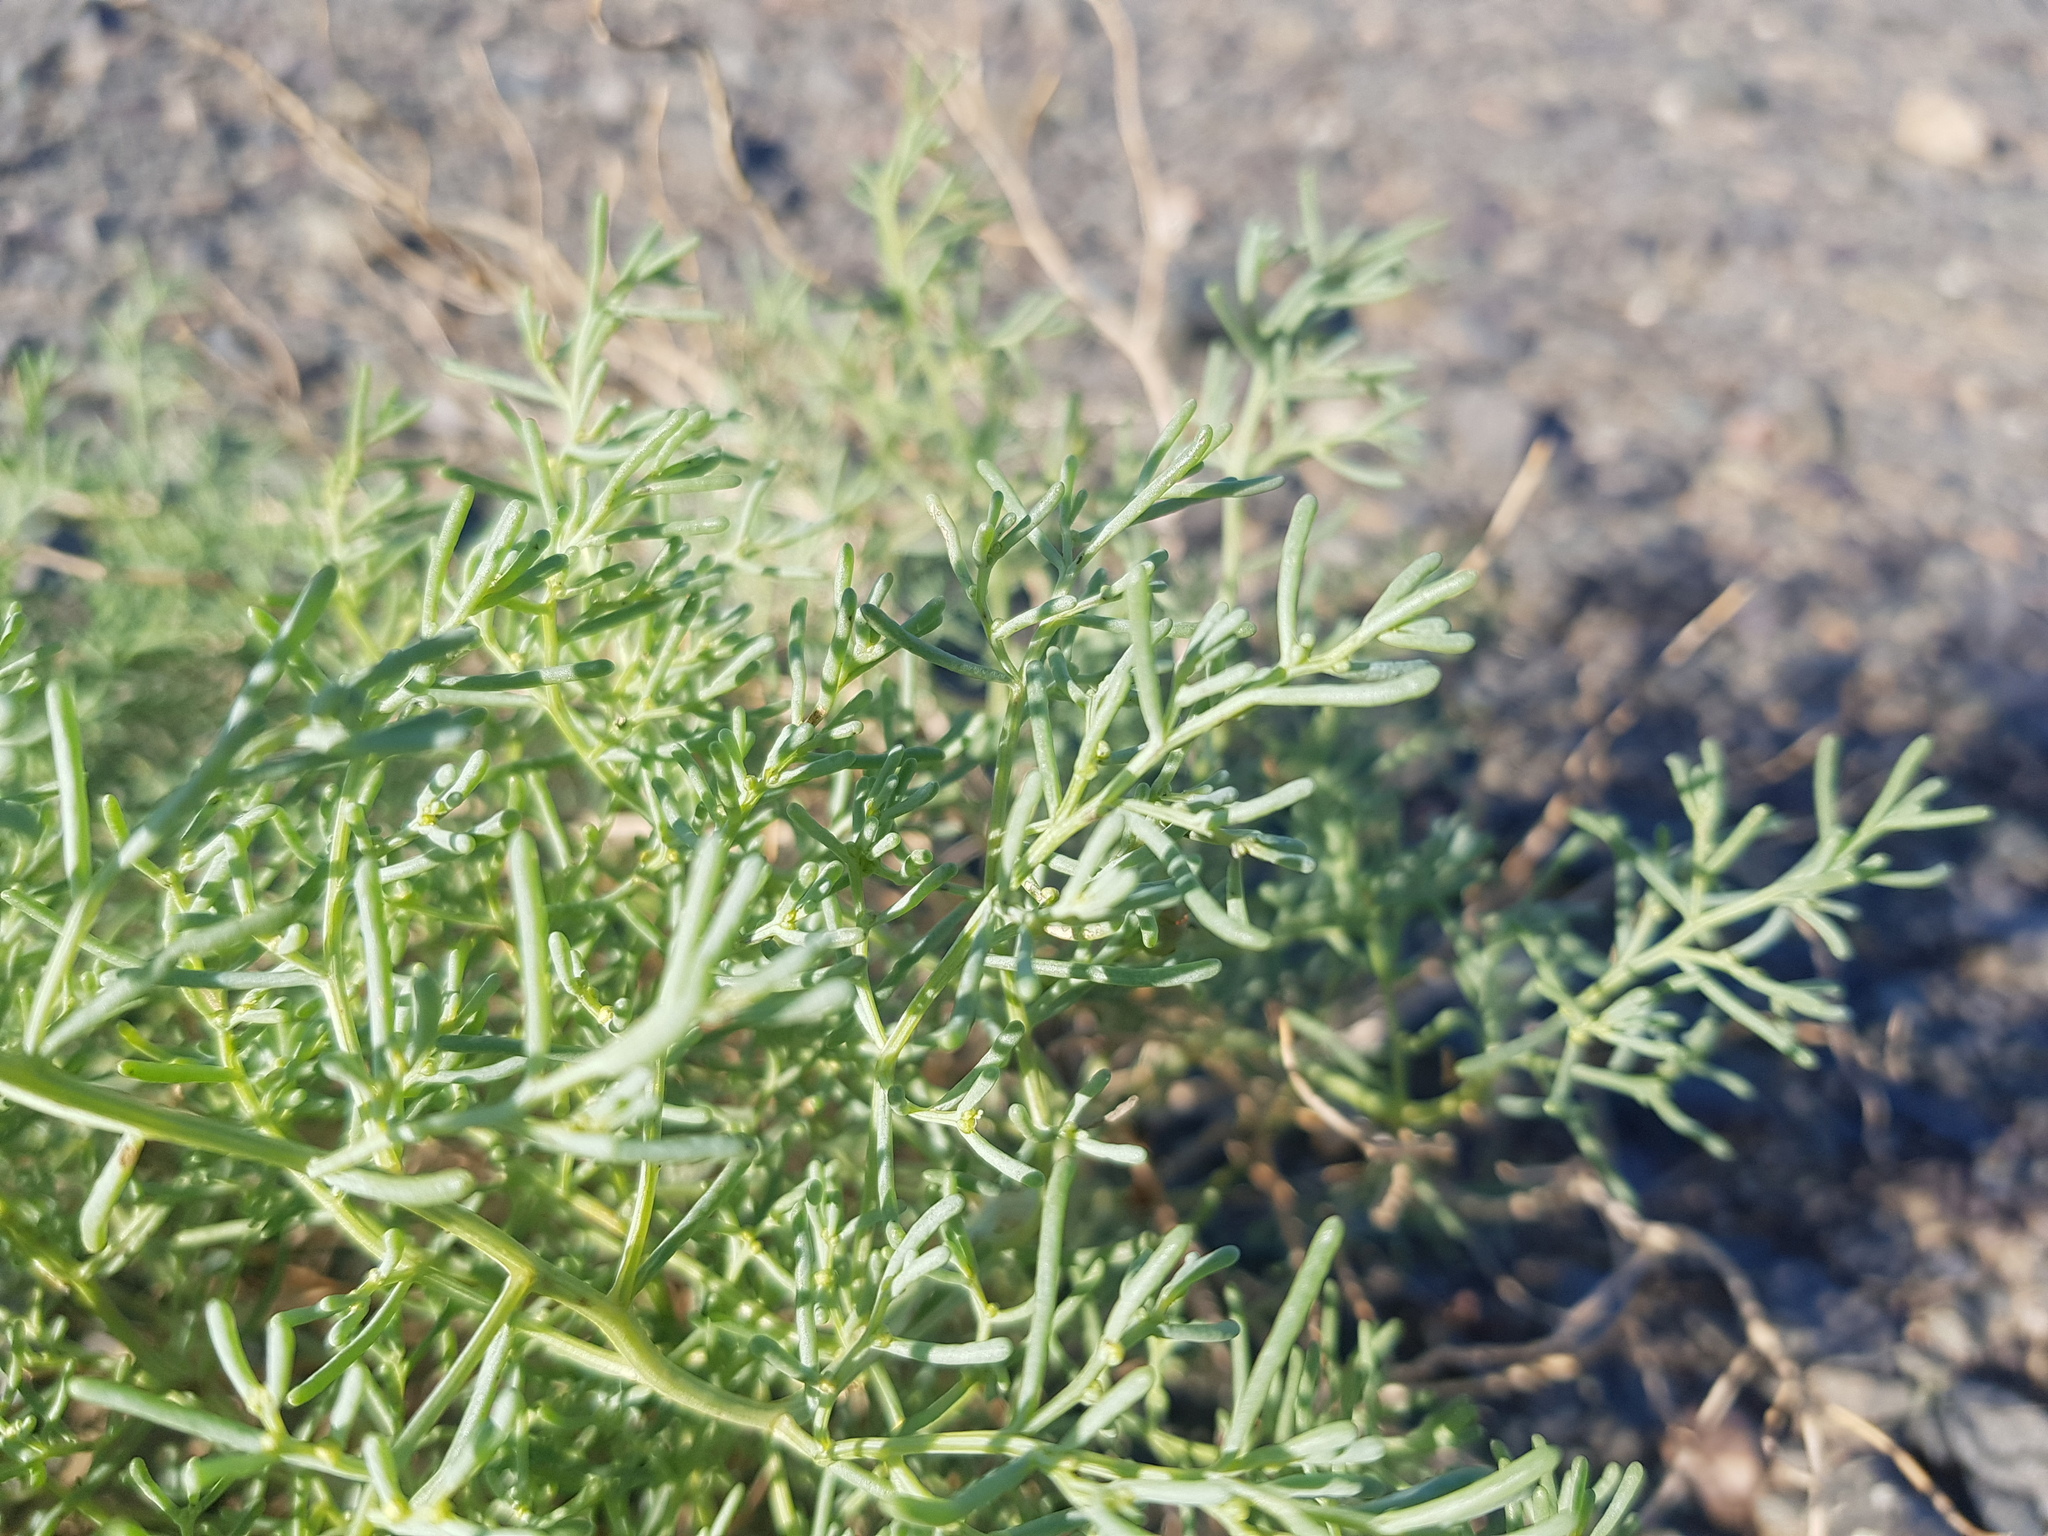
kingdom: Plantae
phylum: Tracheophyta
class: Magnoliopsida
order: Caryophyllales
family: Amaranthaceae
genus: Haloxylon
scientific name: Haloxylon regelii
